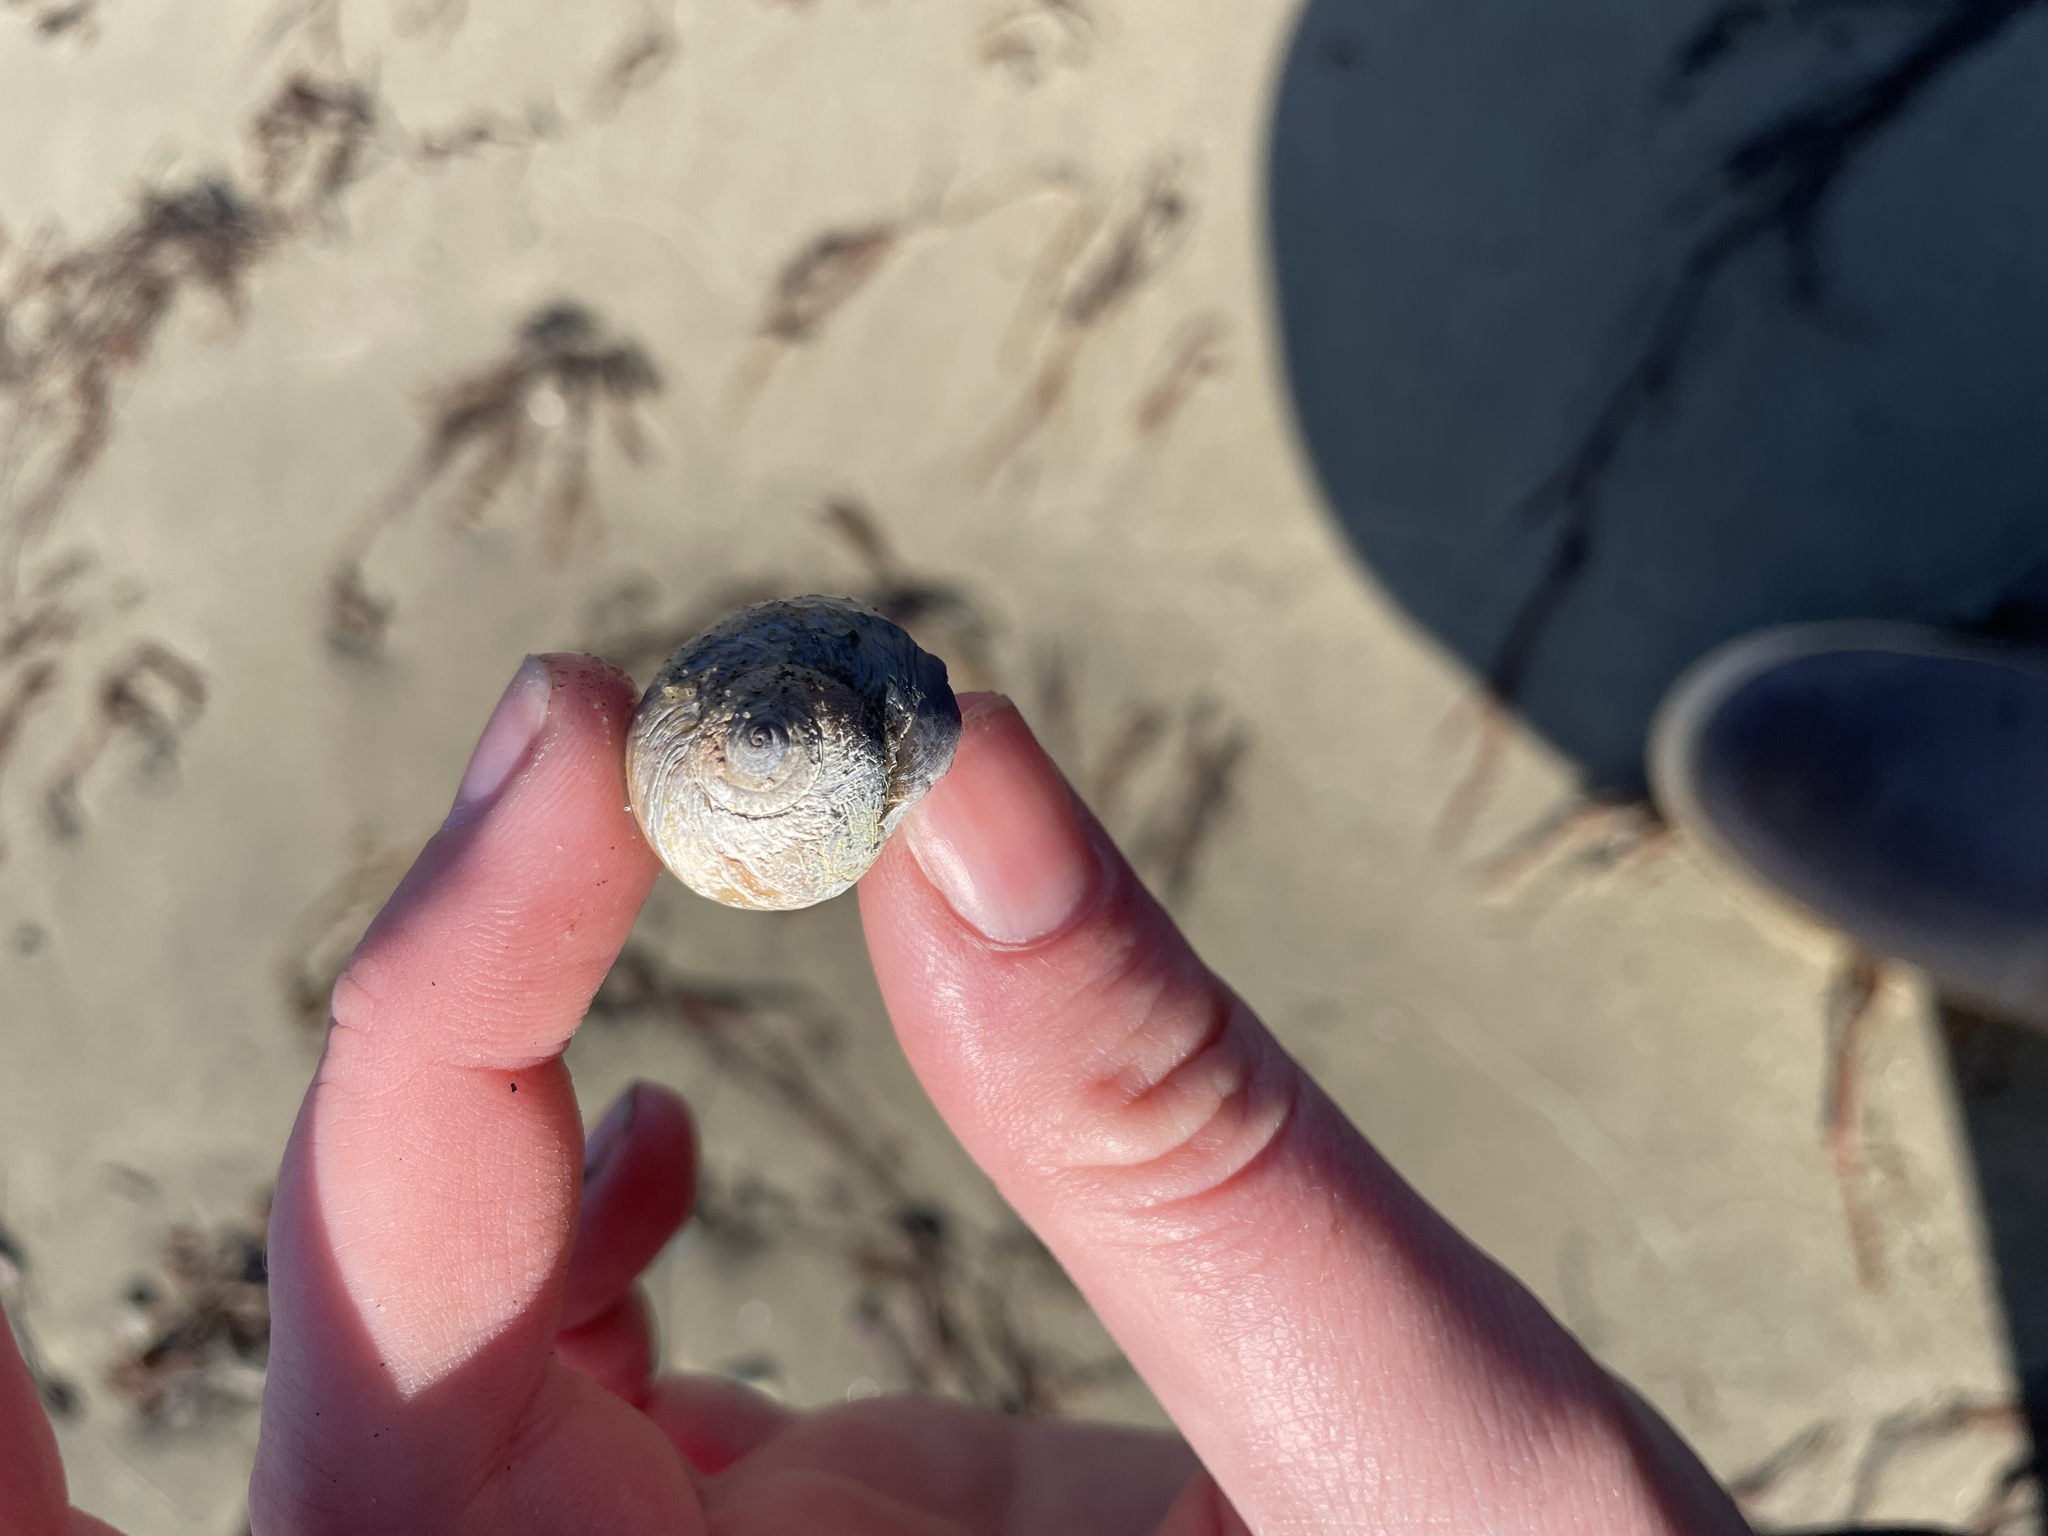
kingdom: Animalia
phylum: Mollusca
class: Gastropoda
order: Littorinimorpha
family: Naticidae
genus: Euspira
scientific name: Euspira heros
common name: Common northern moonsnail
